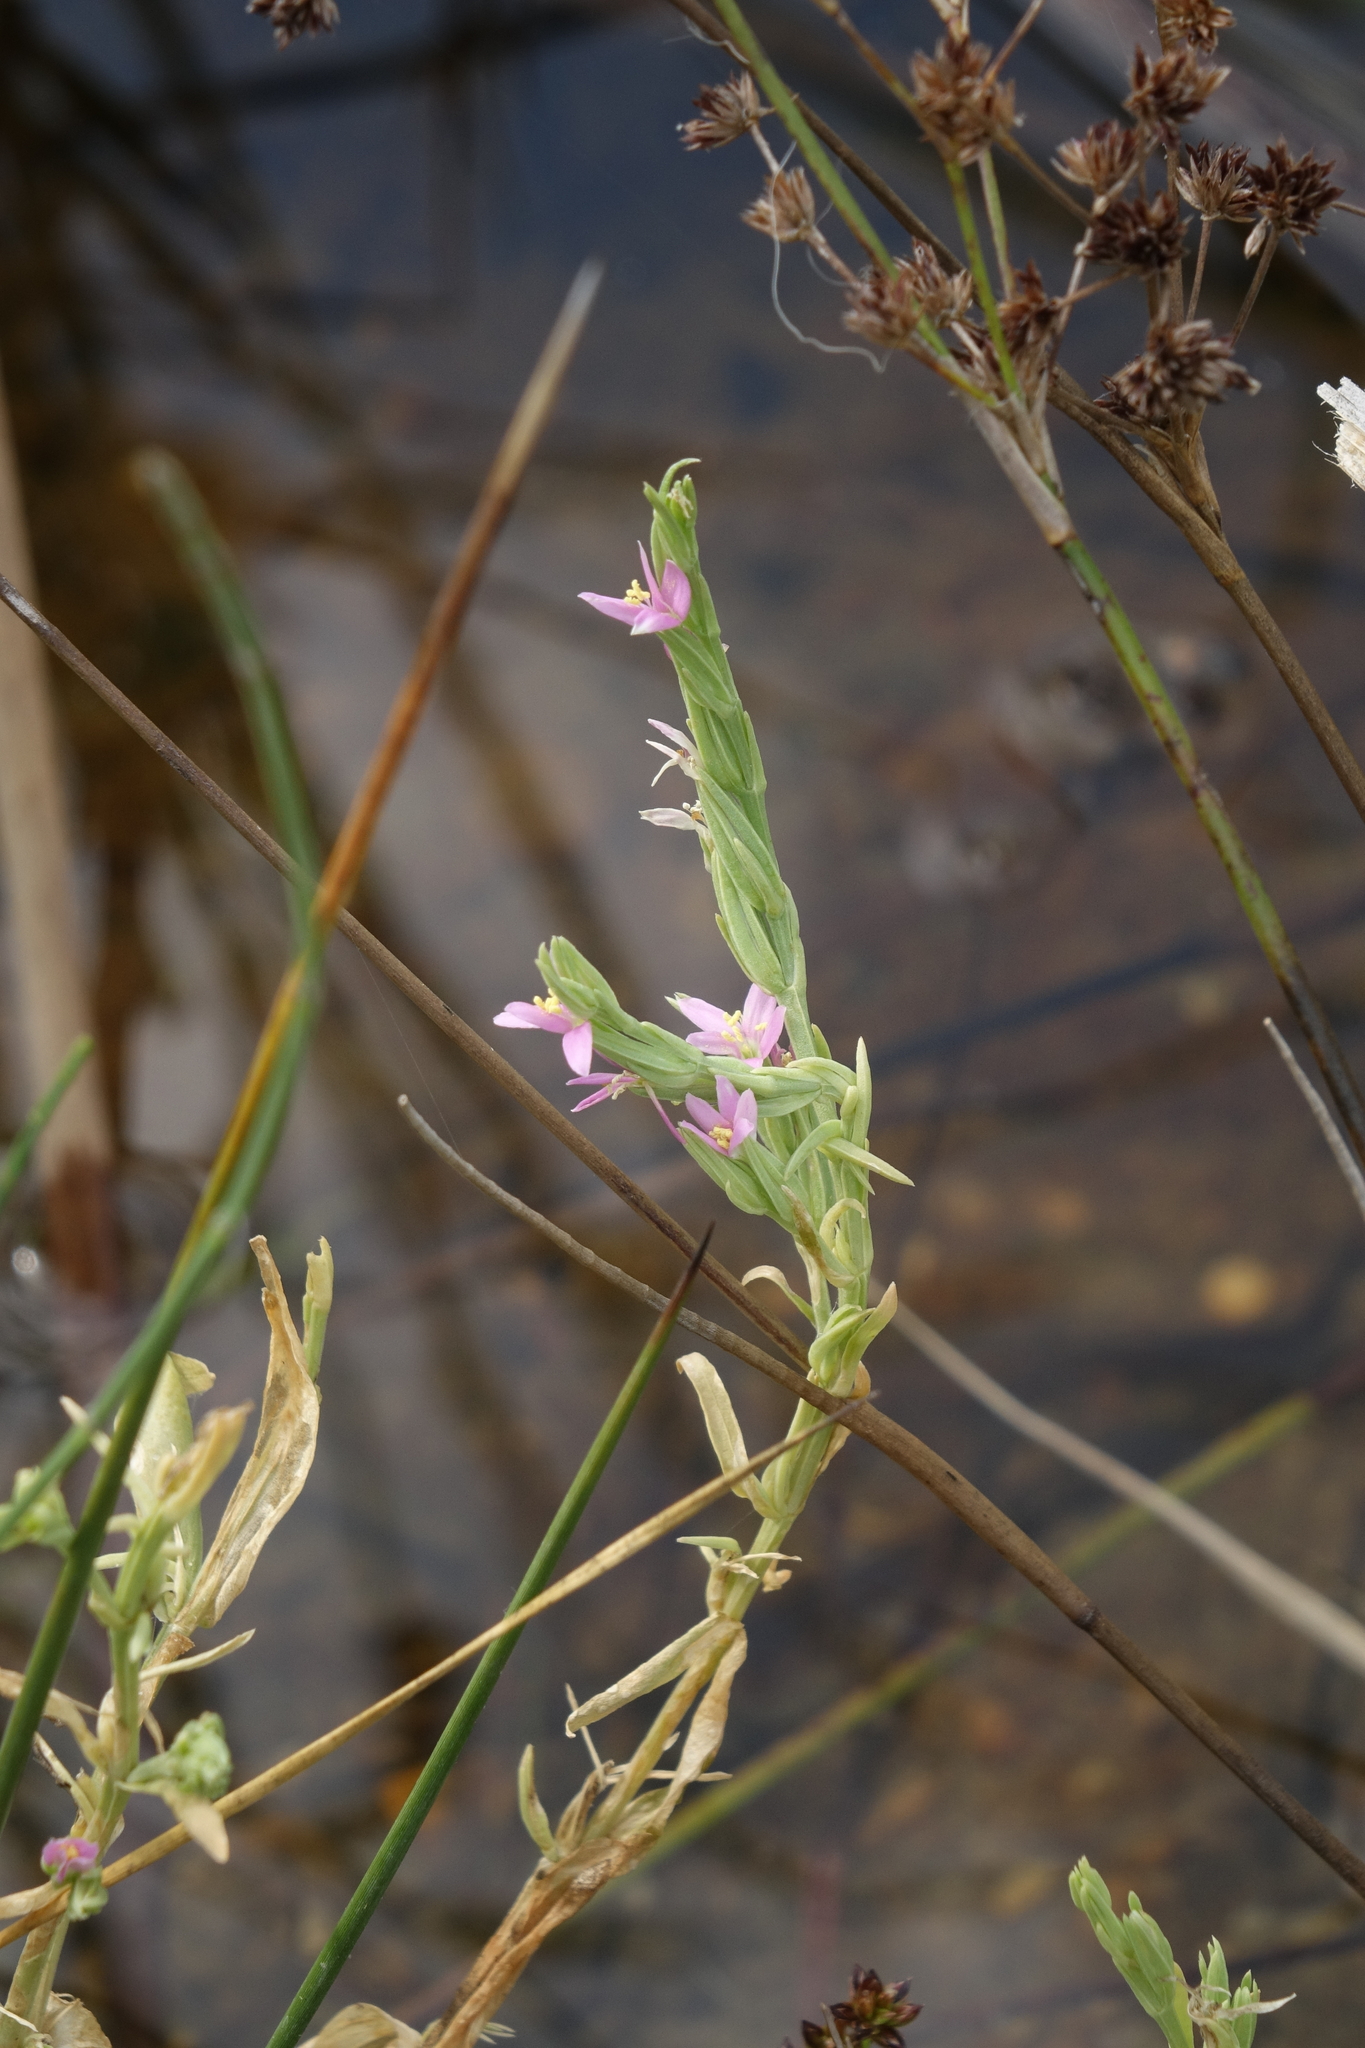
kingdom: Plantae
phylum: Tracheophyta
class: Magnoliopsida
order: Gentianales
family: Gentianaceae
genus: Schenkia
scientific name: Schenkia spicata
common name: Spiked centaury
